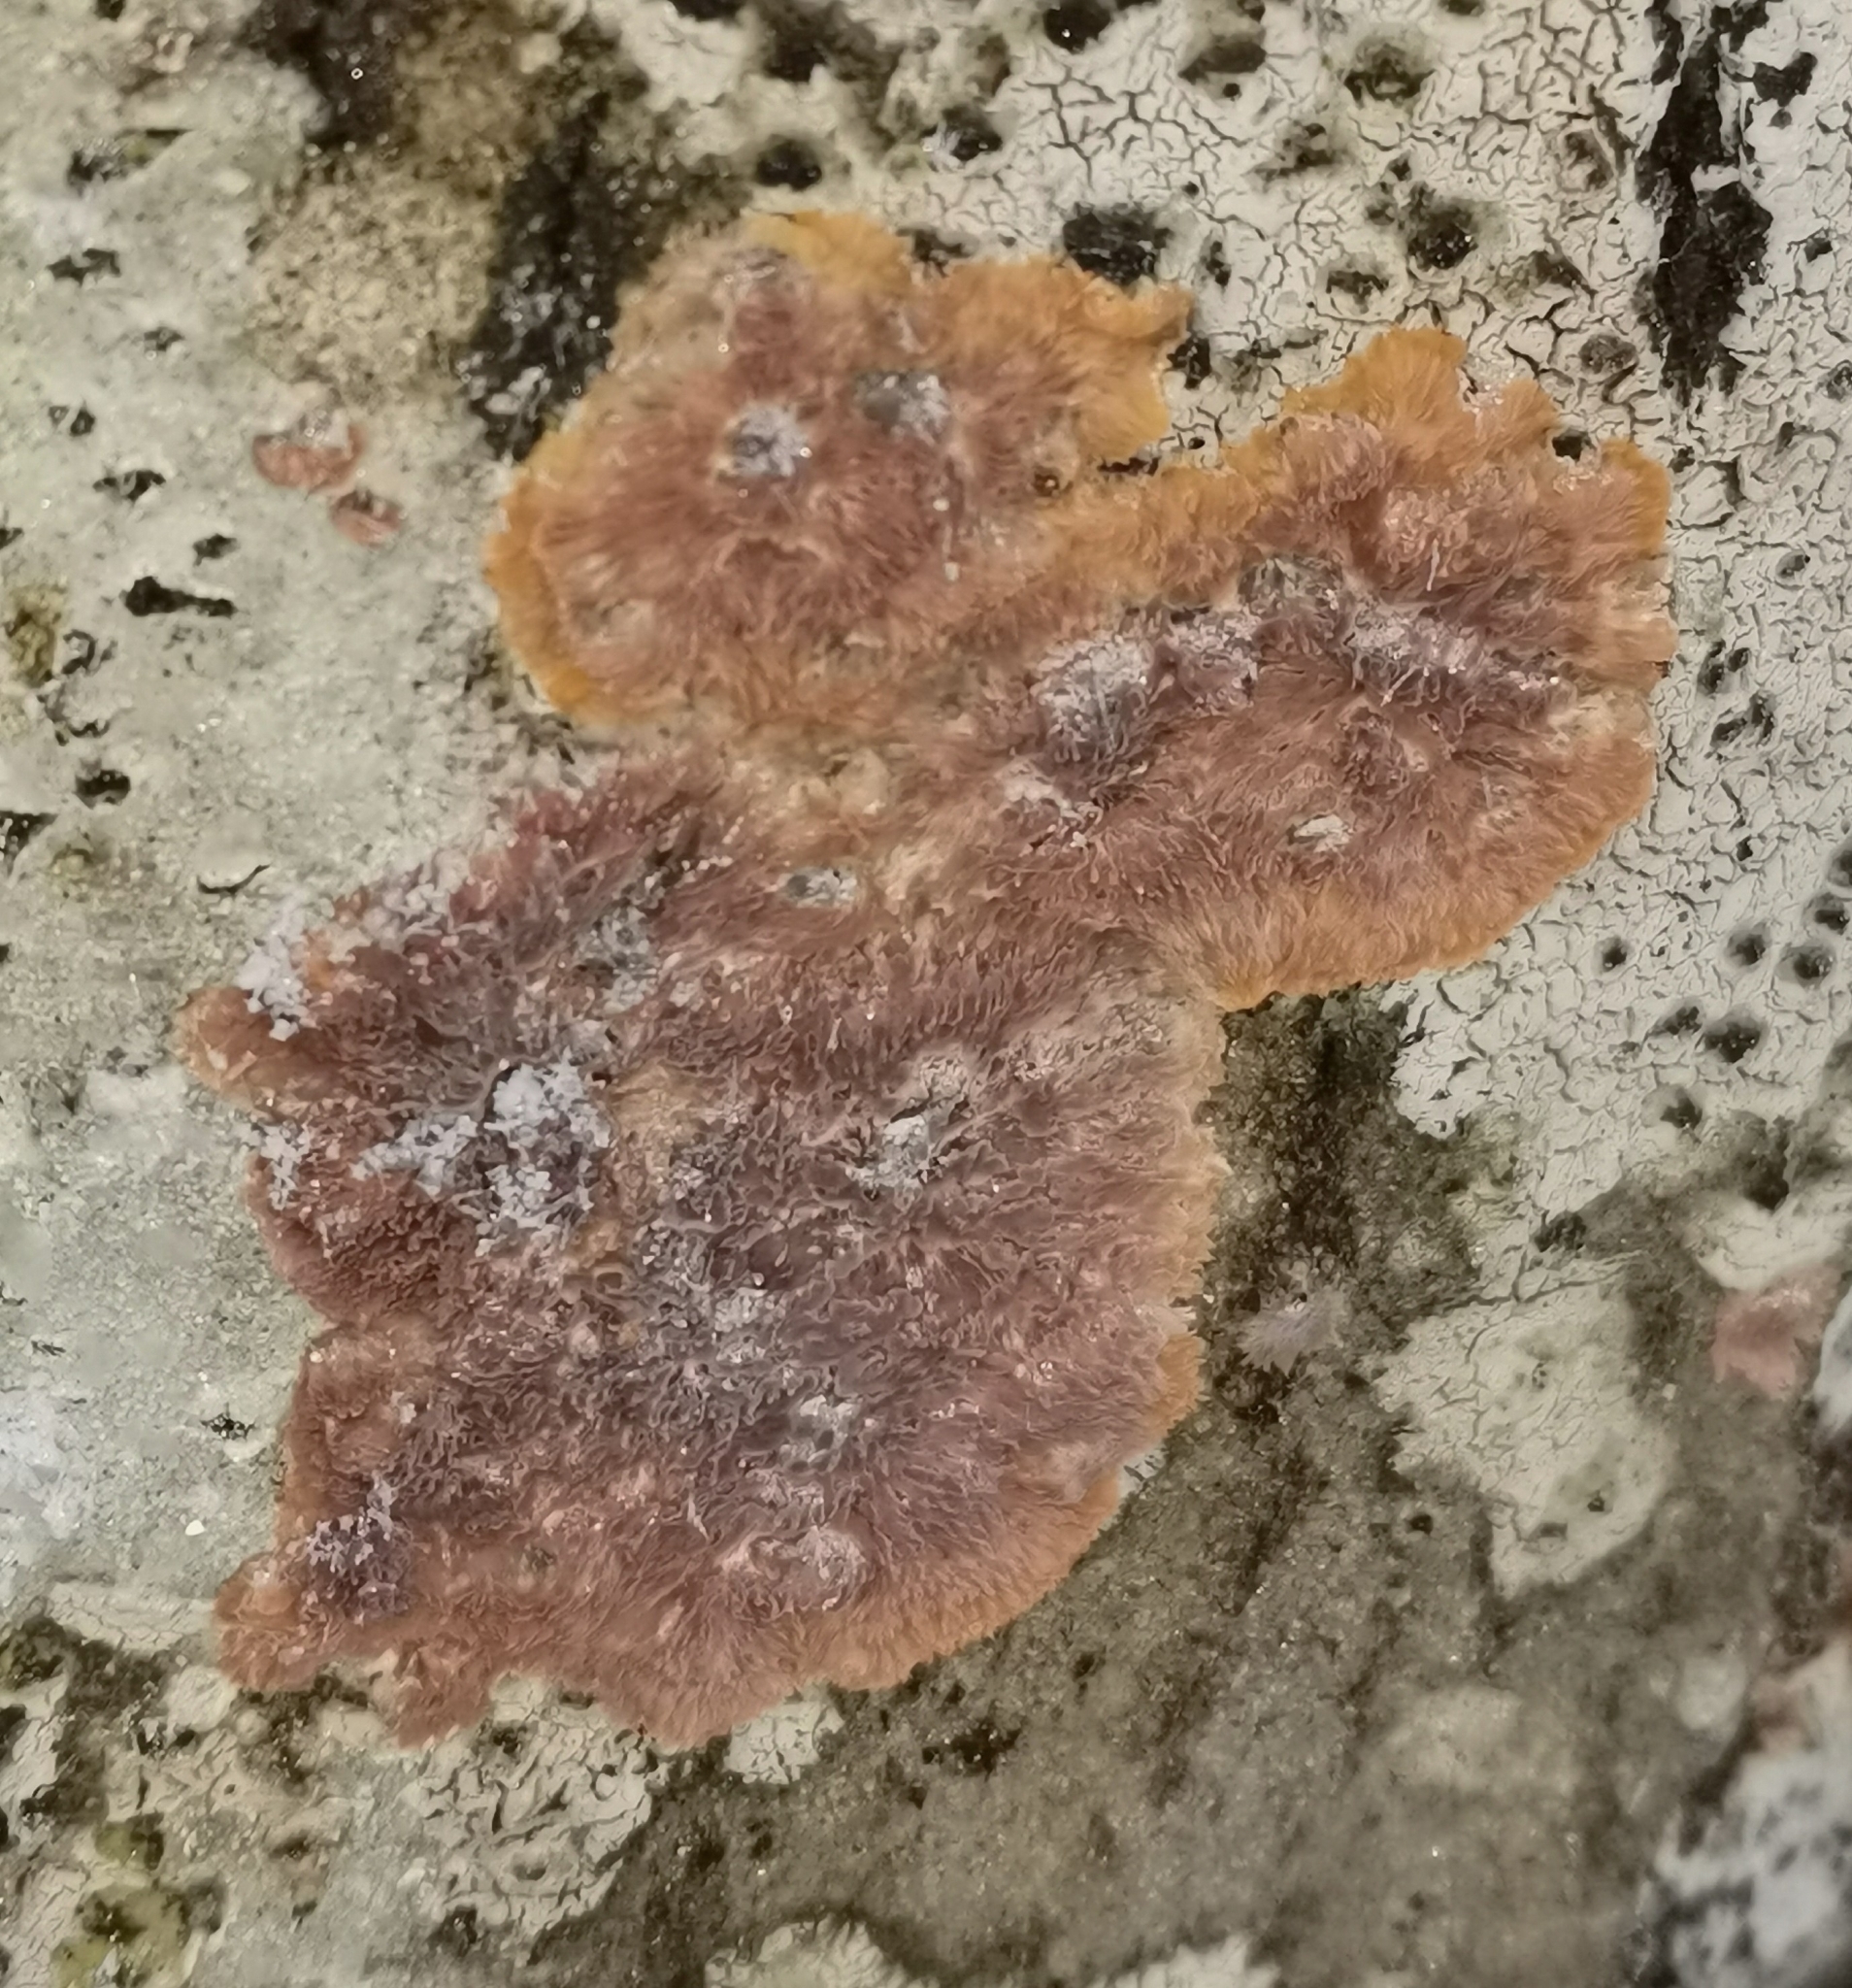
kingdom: Fungi
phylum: Basidiomycota
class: Agaricomycetes
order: Polyporales
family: Meruliaceae
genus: Phlebia
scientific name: Phlebia rufa
